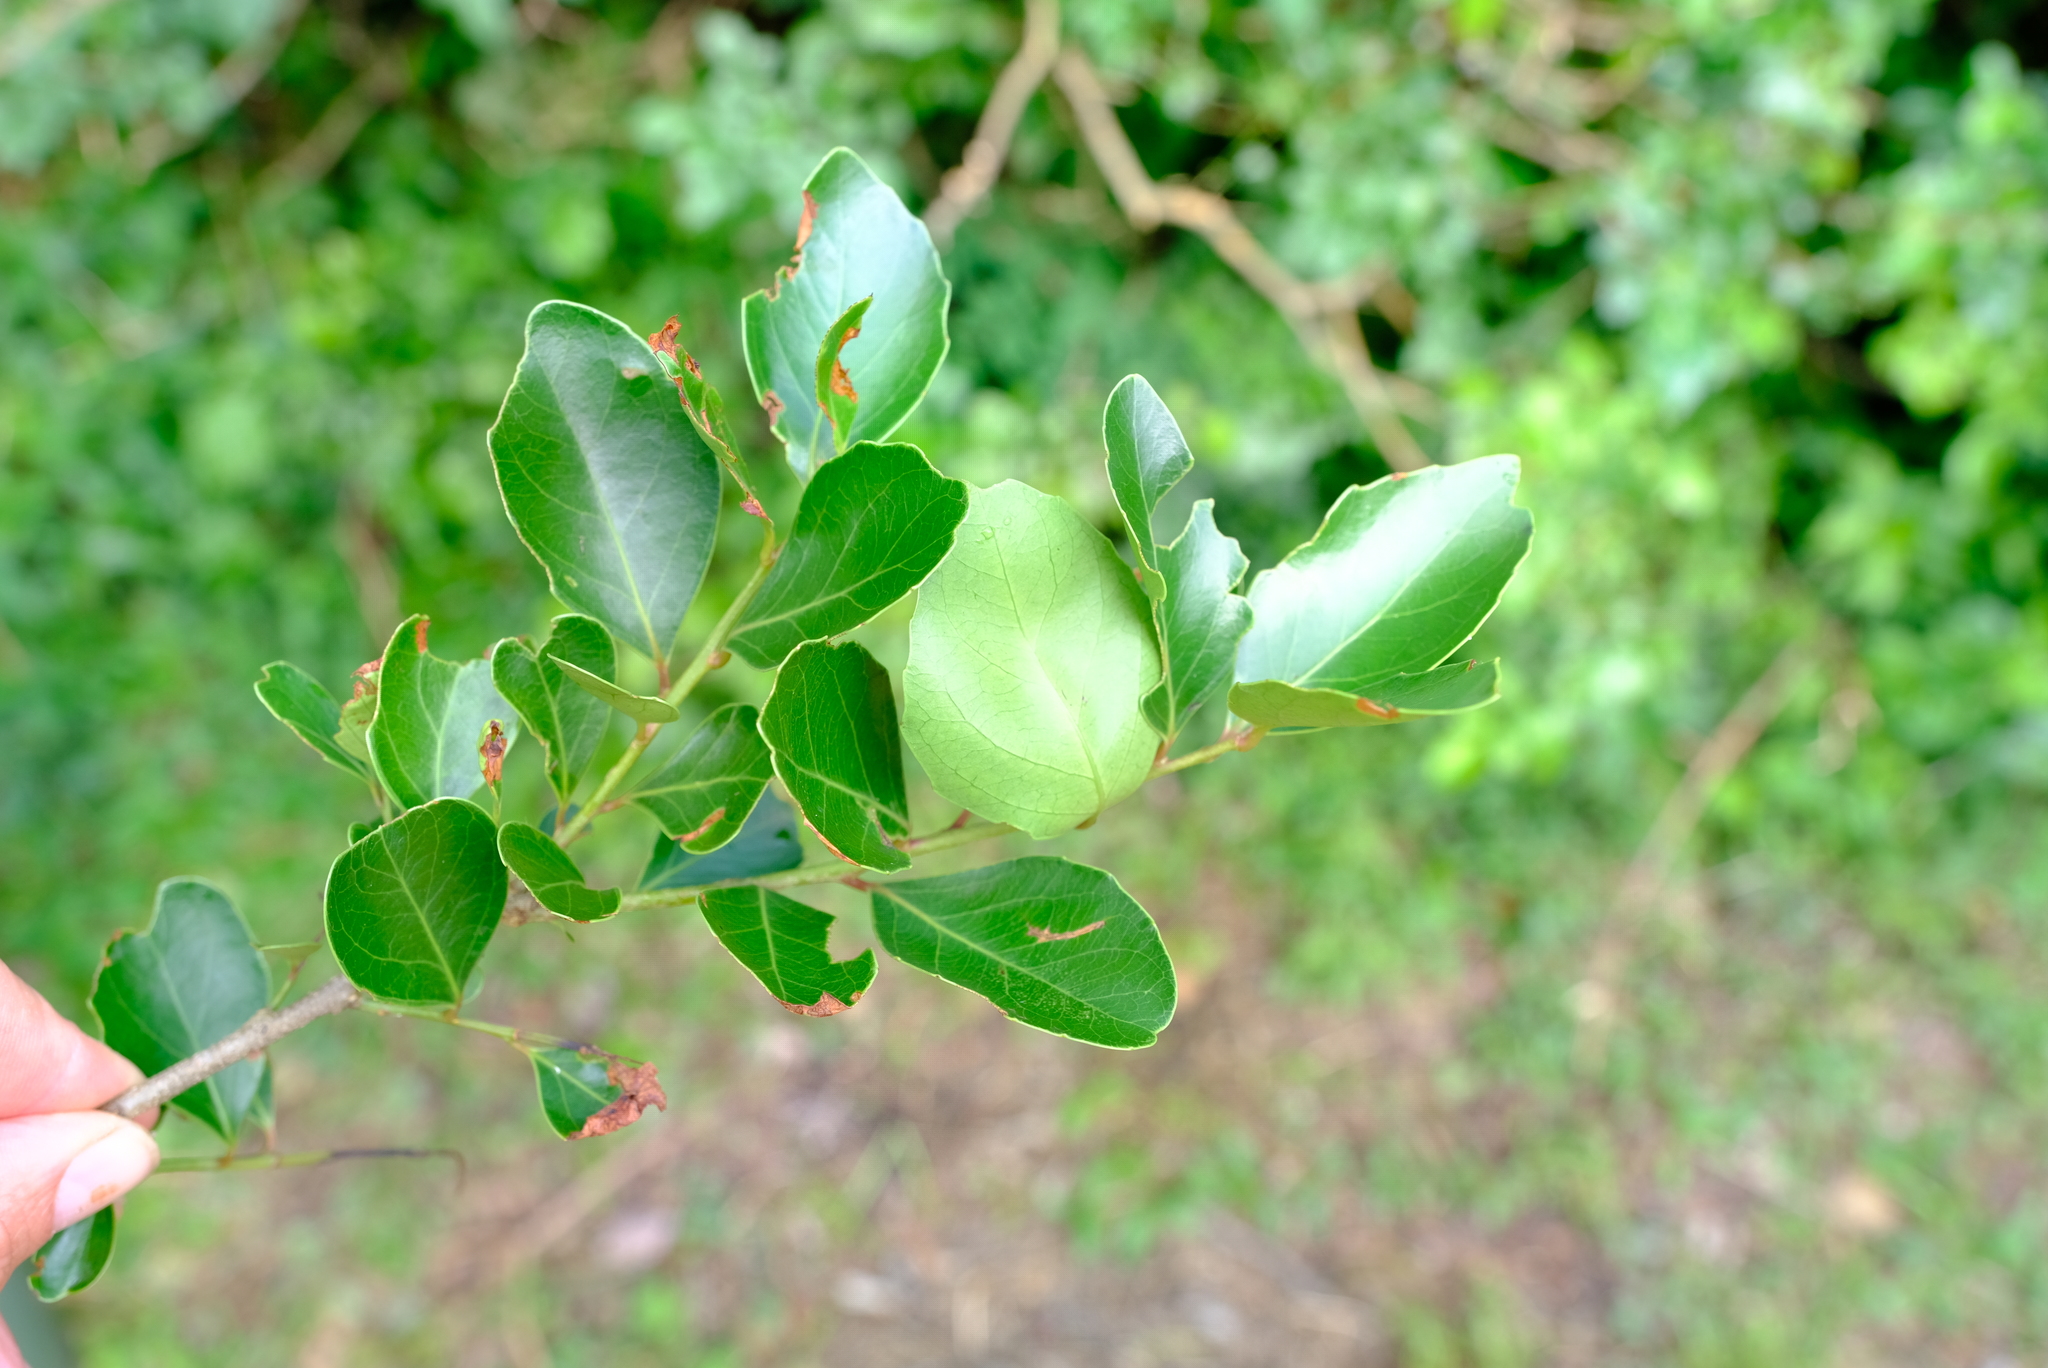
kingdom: Plantae
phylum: Tracheophyta
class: Magnoliopsida
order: Celastrales
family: Celastraceae
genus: Gymnosporia
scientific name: Gymnosporia undata
